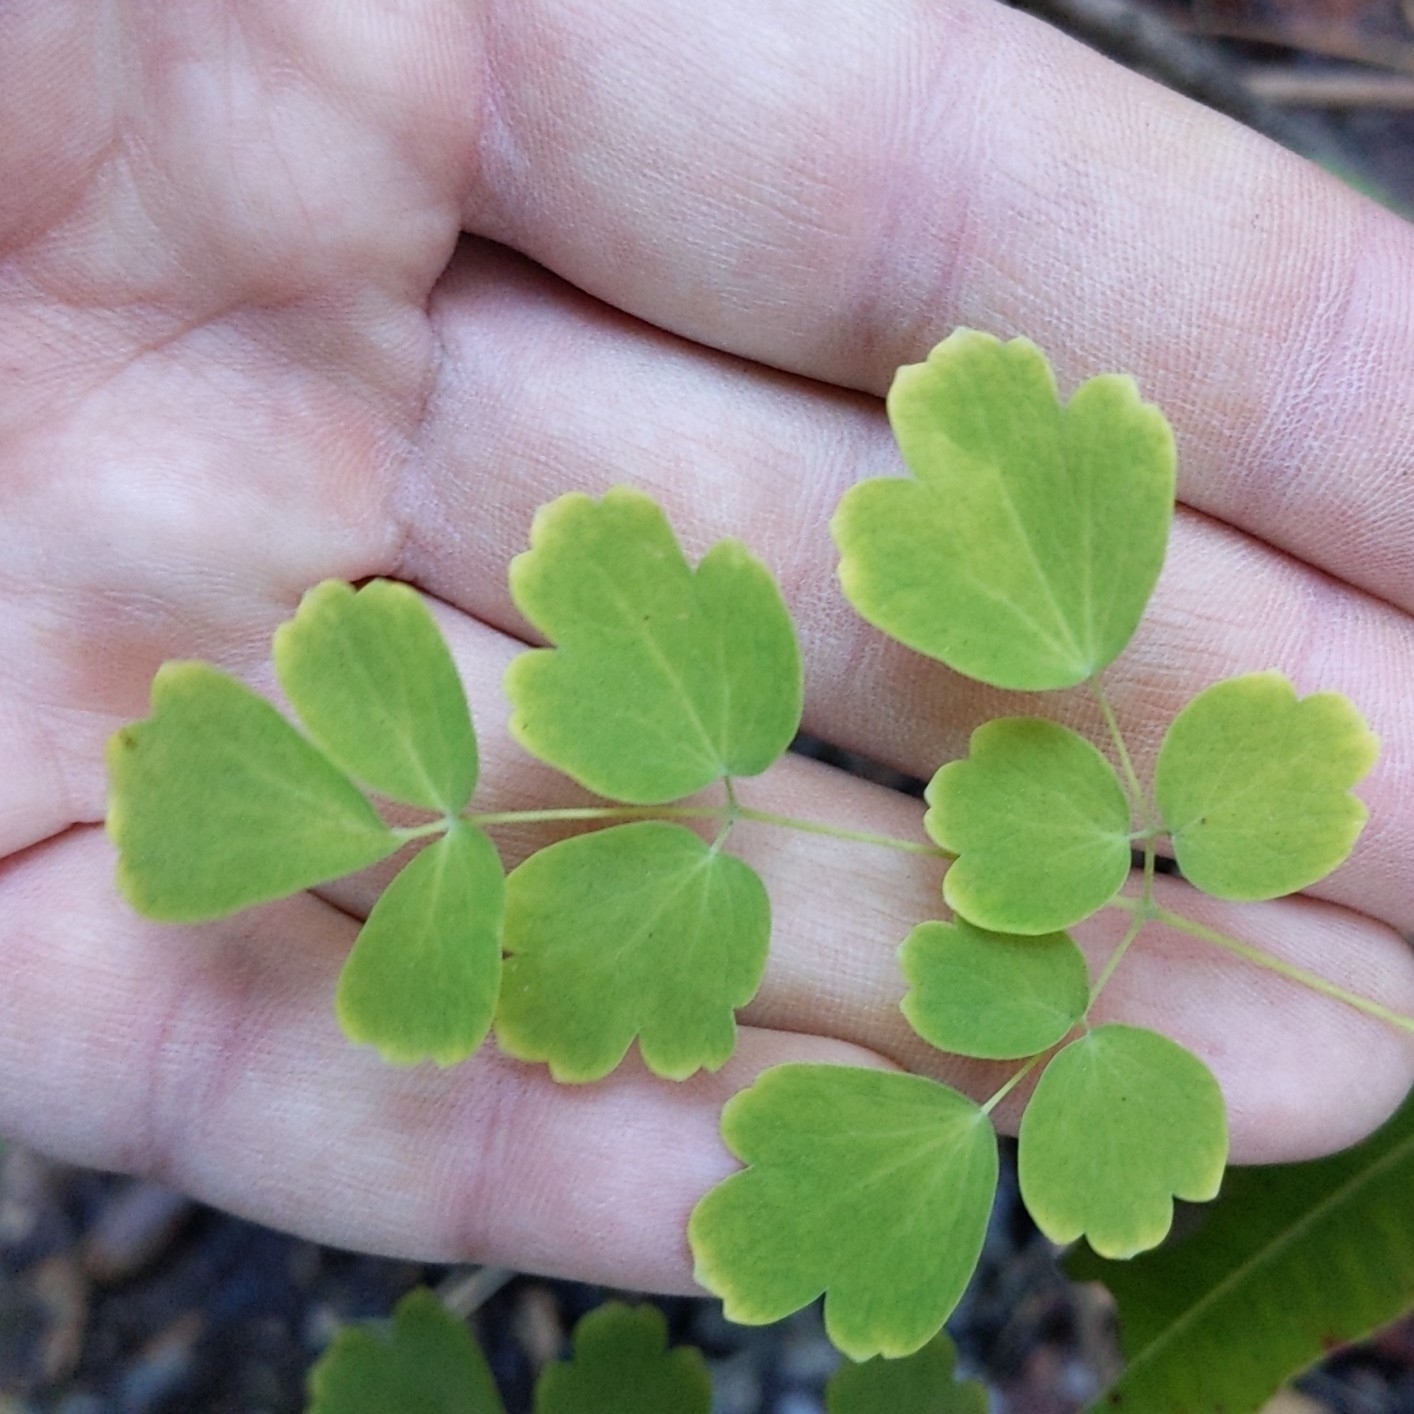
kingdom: Plantae
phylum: Tracheophyta
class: Magnoliopsida
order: Ranunculales
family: Ranunculaceae
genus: Thalictrum
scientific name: Thalictrum fendleri
